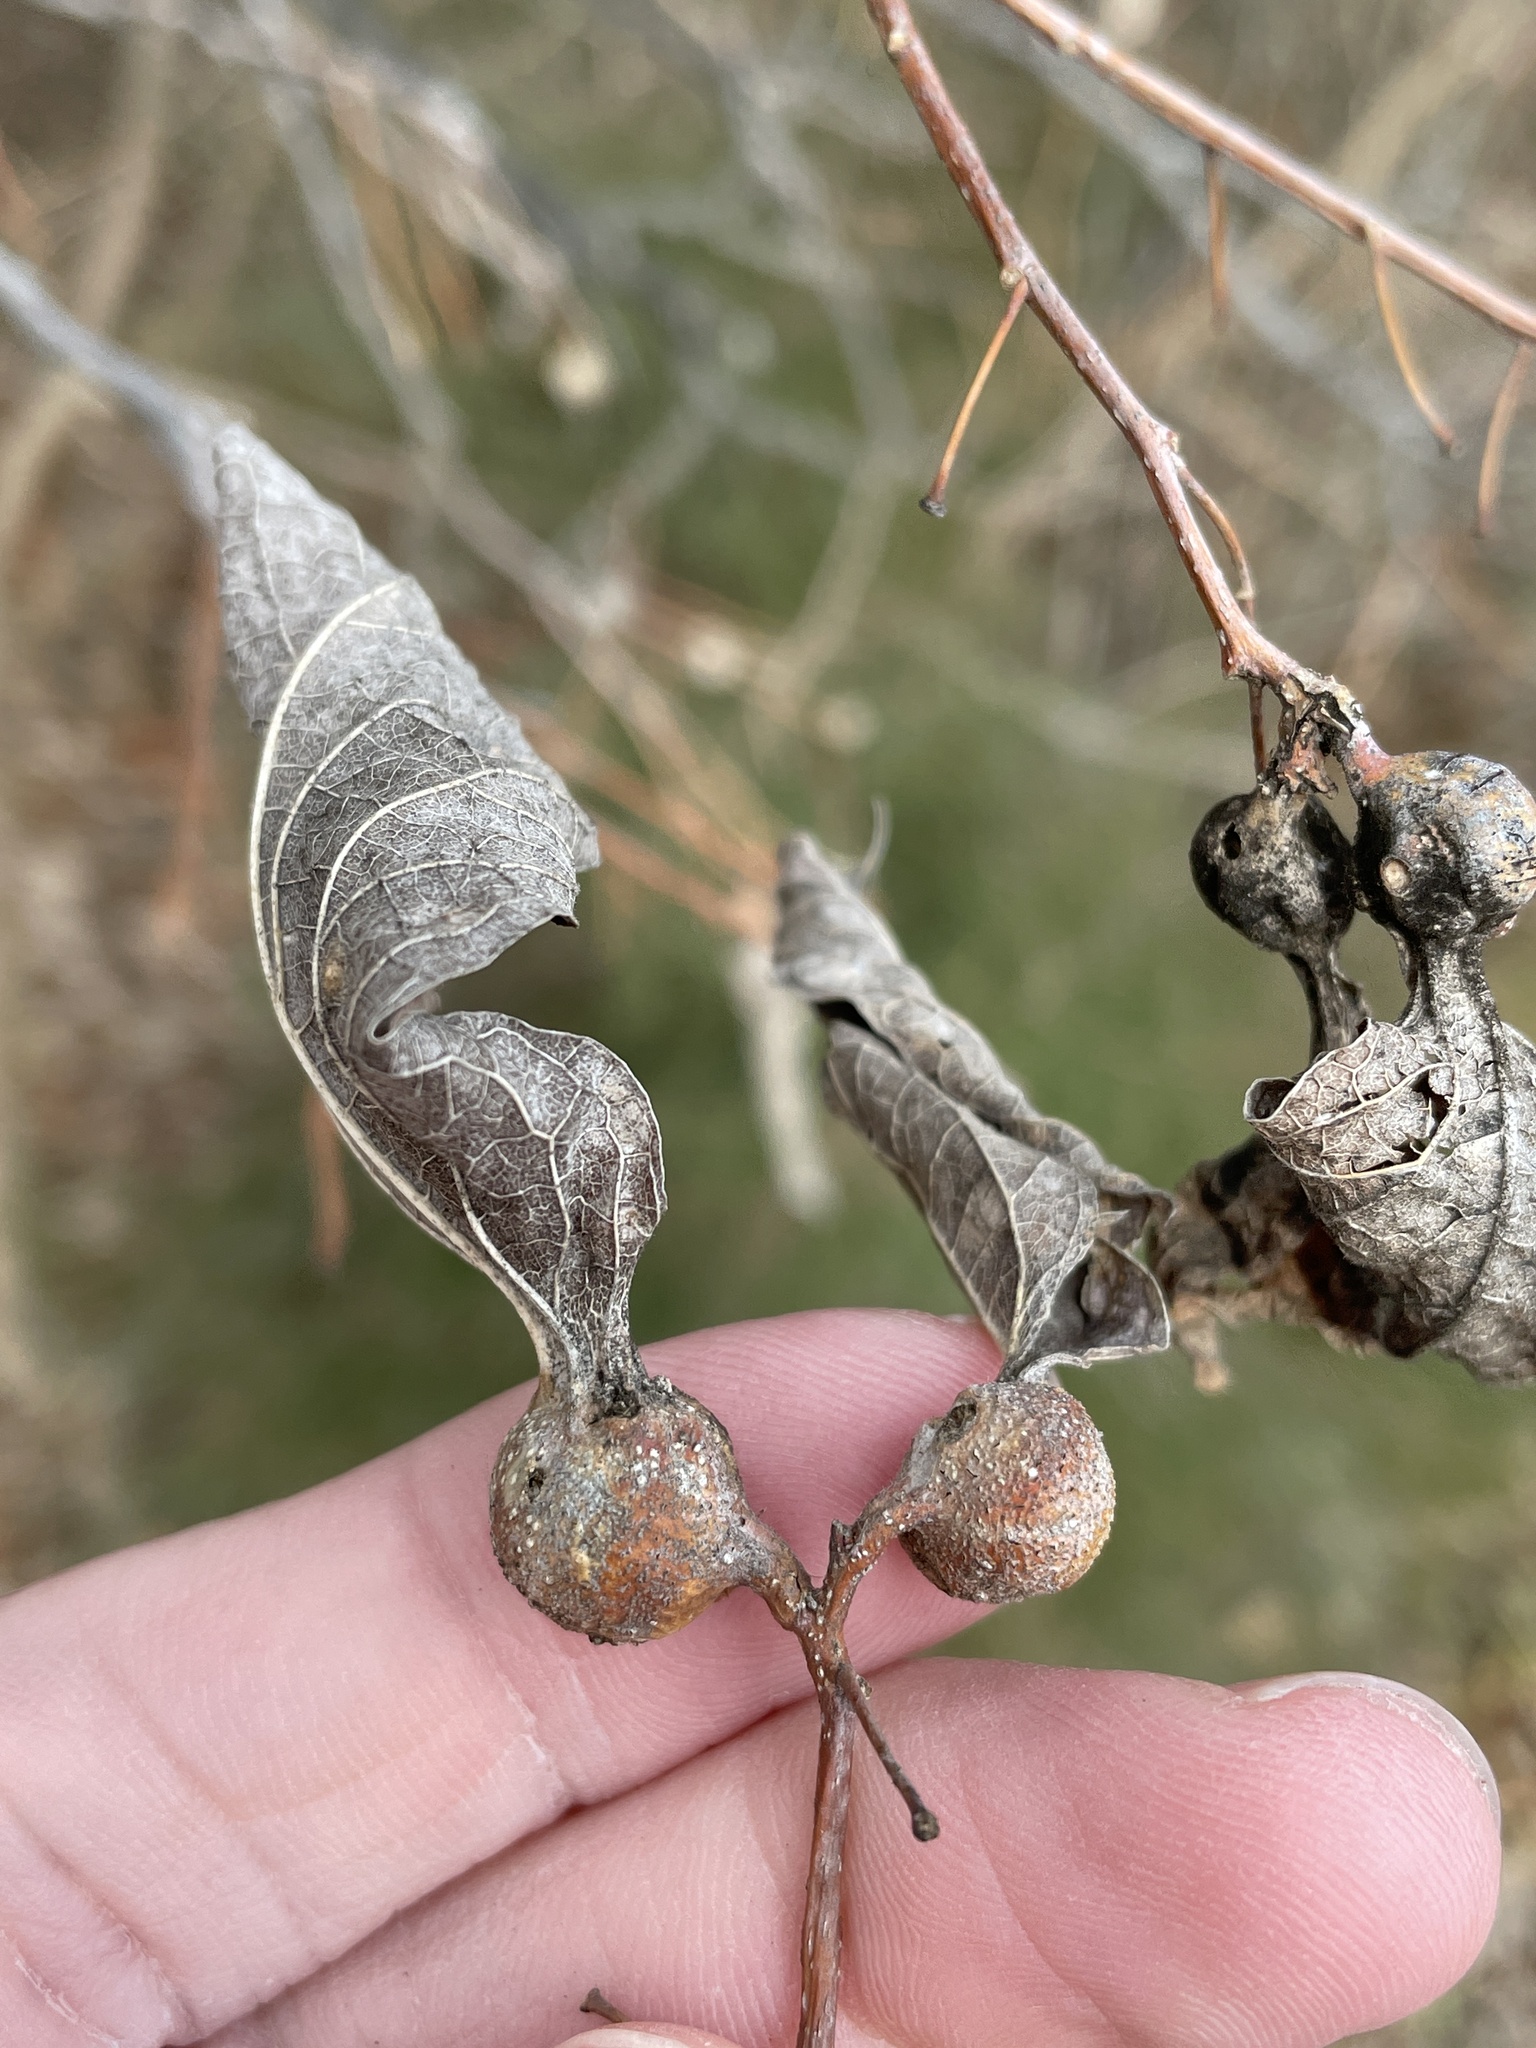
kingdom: Animalia
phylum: Arthropoda
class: Insecta
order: Hemiptera
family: Aphalaridae
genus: Pachypsylla
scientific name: Pachypsylla venusta
